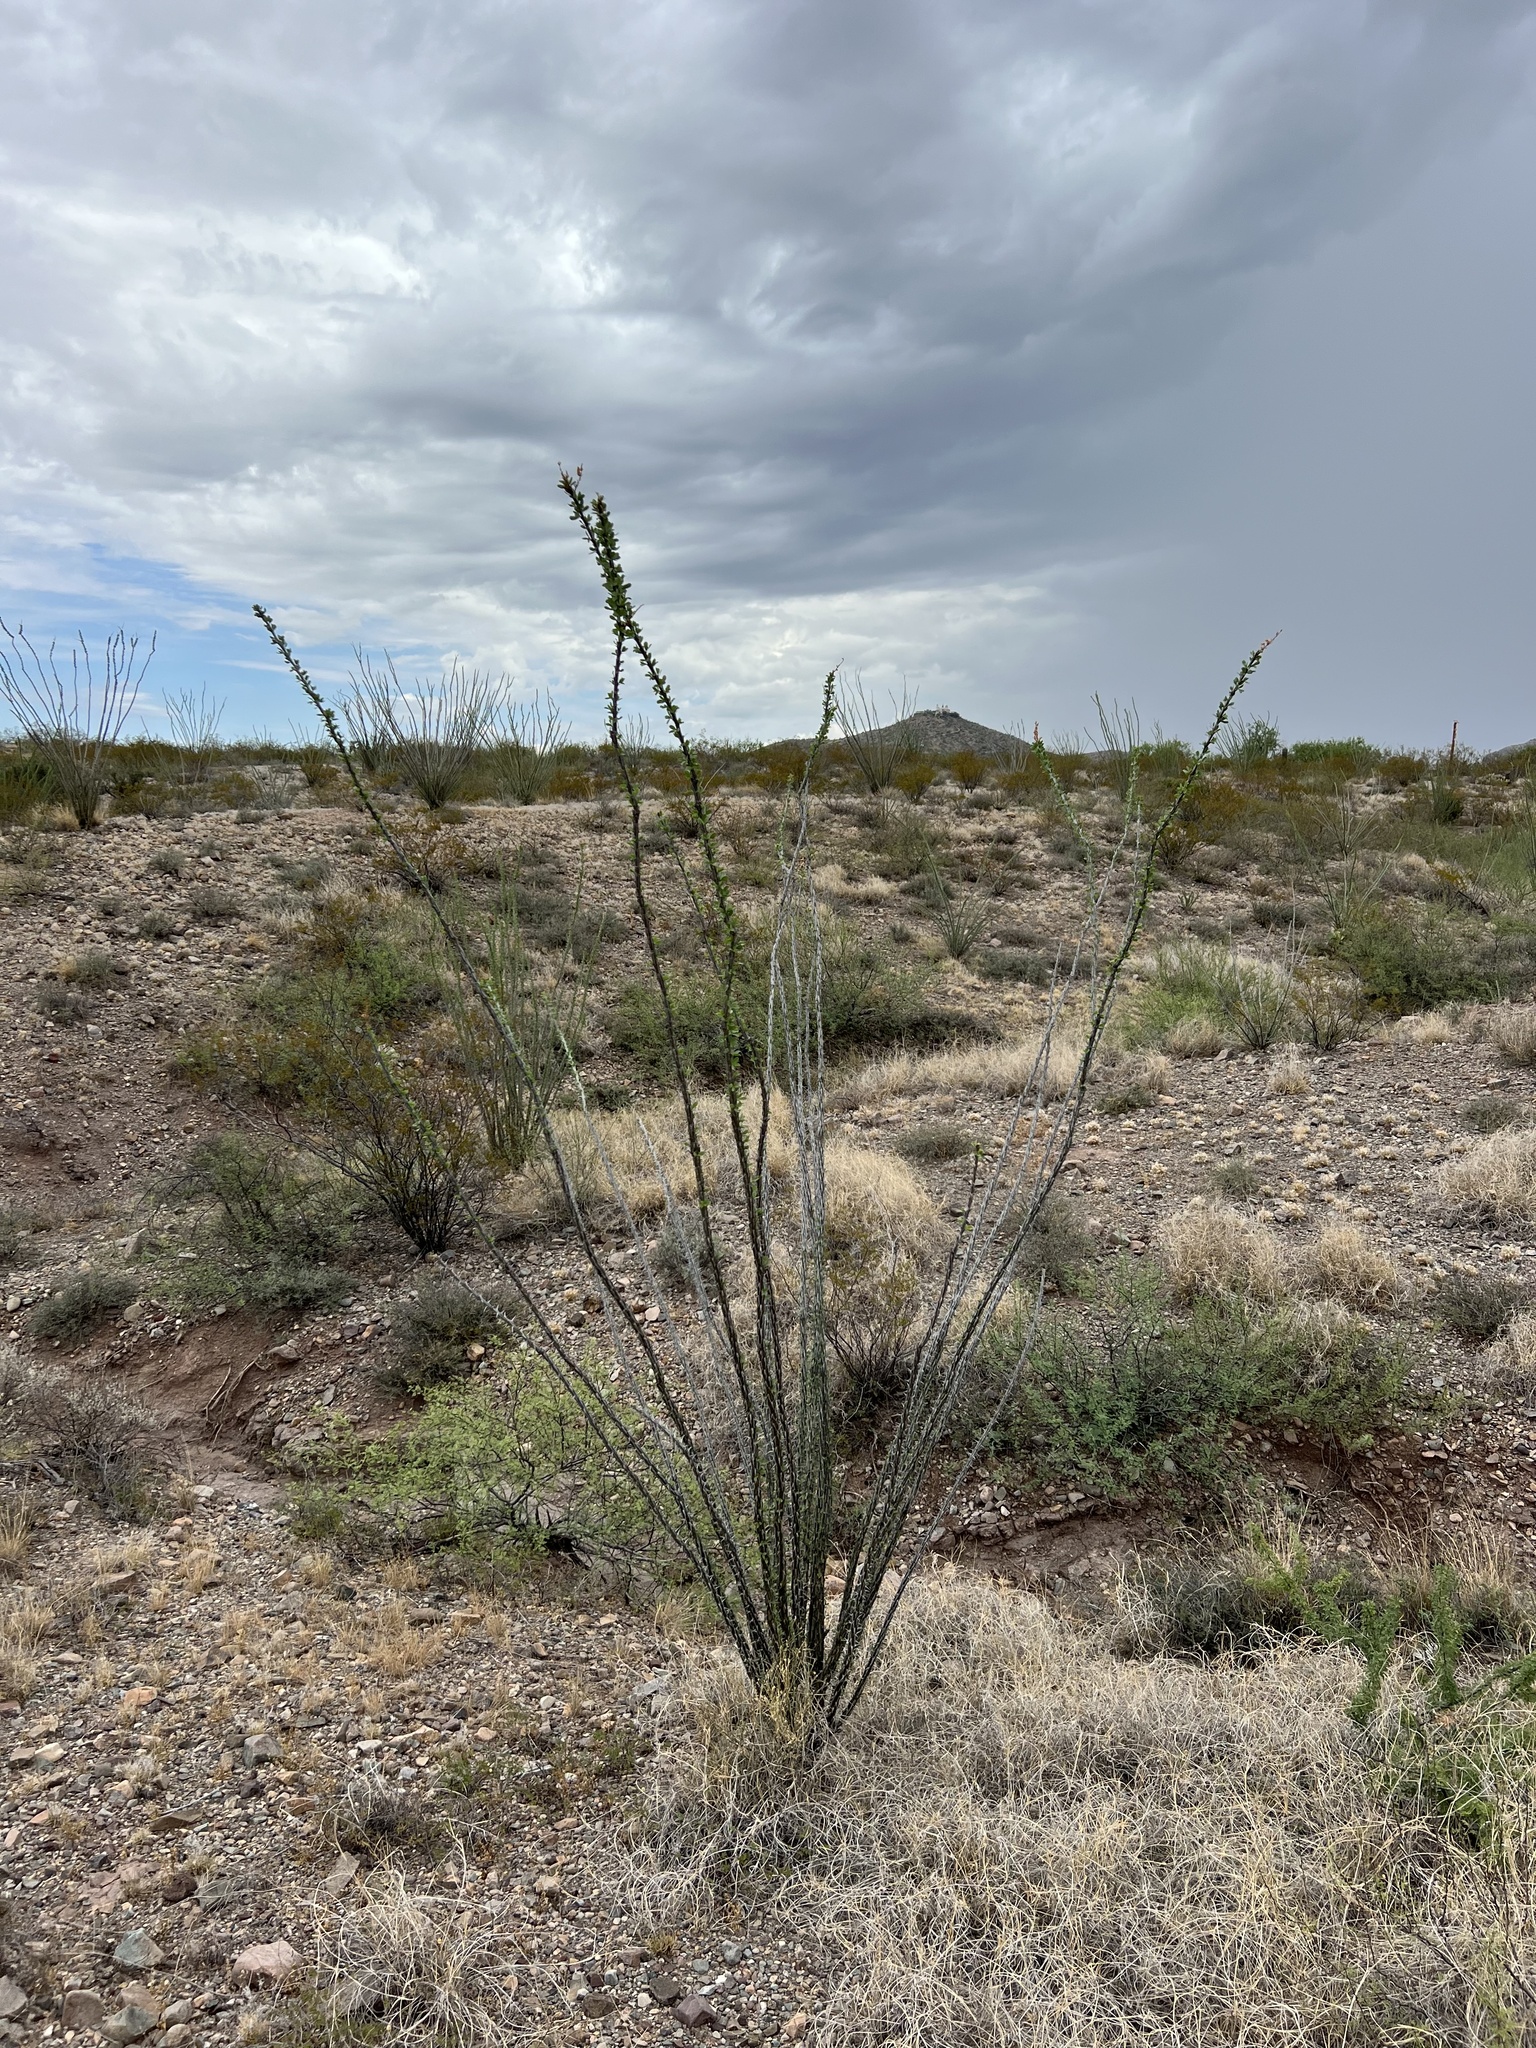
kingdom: Plantae
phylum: Tracheophyta
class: Magnoliopsida
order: Ericales
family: Fouquieriaceae
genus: Fouquieria
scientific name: Fouquieria splendens
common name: Vine-cactus
